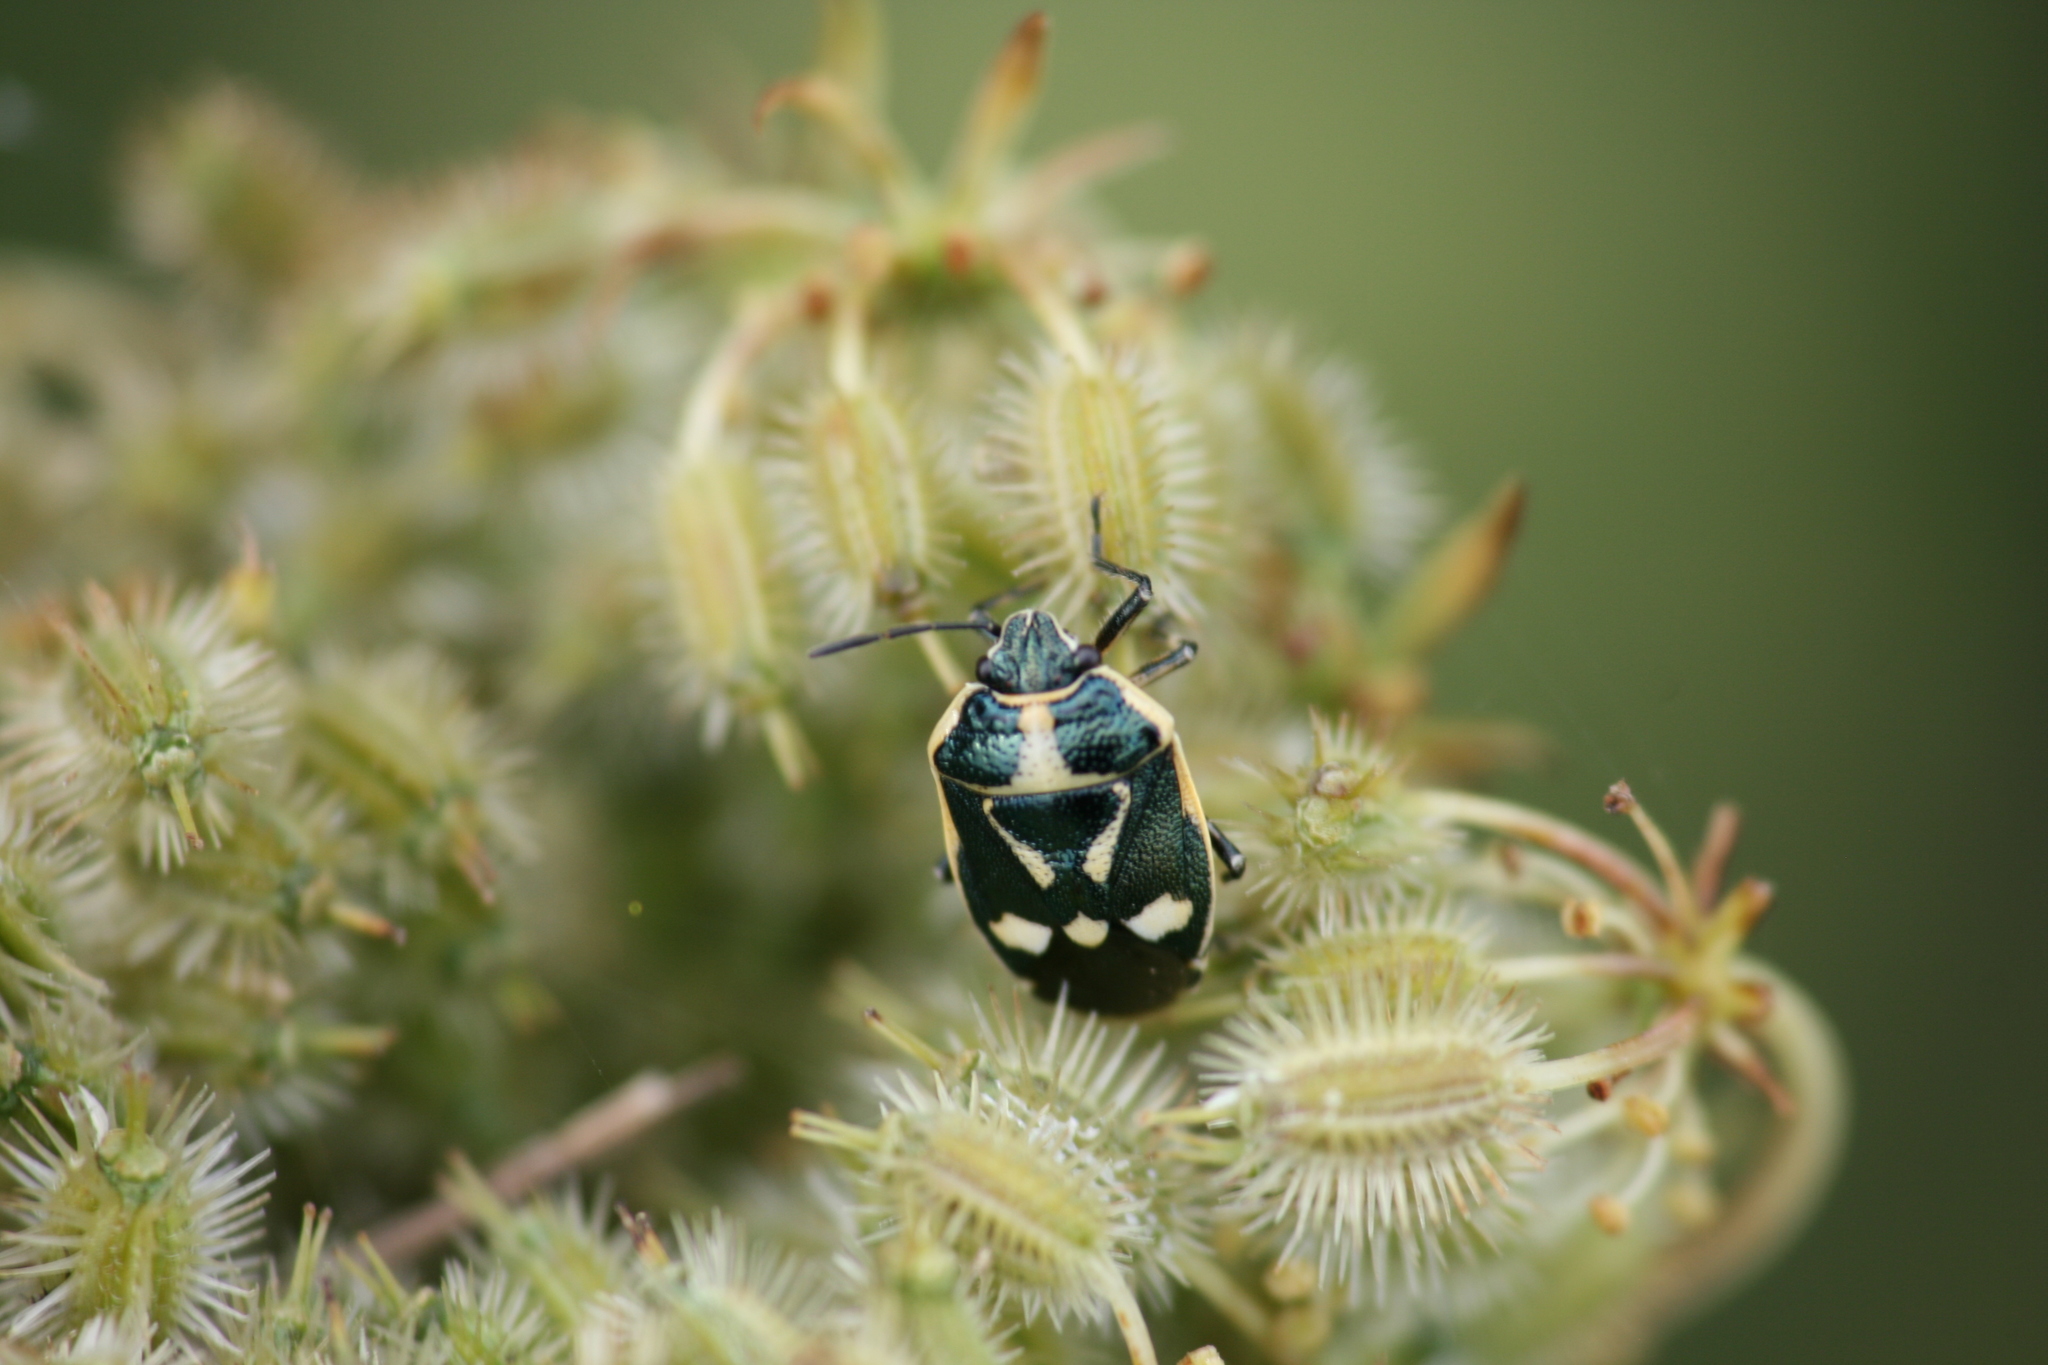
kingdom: Animalia
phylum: Arthropoda
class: Insecta
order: Hemiptera
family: Pentatomidae
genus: Eurydema
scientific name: Eurydema oleracea
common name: Cabbage bug
